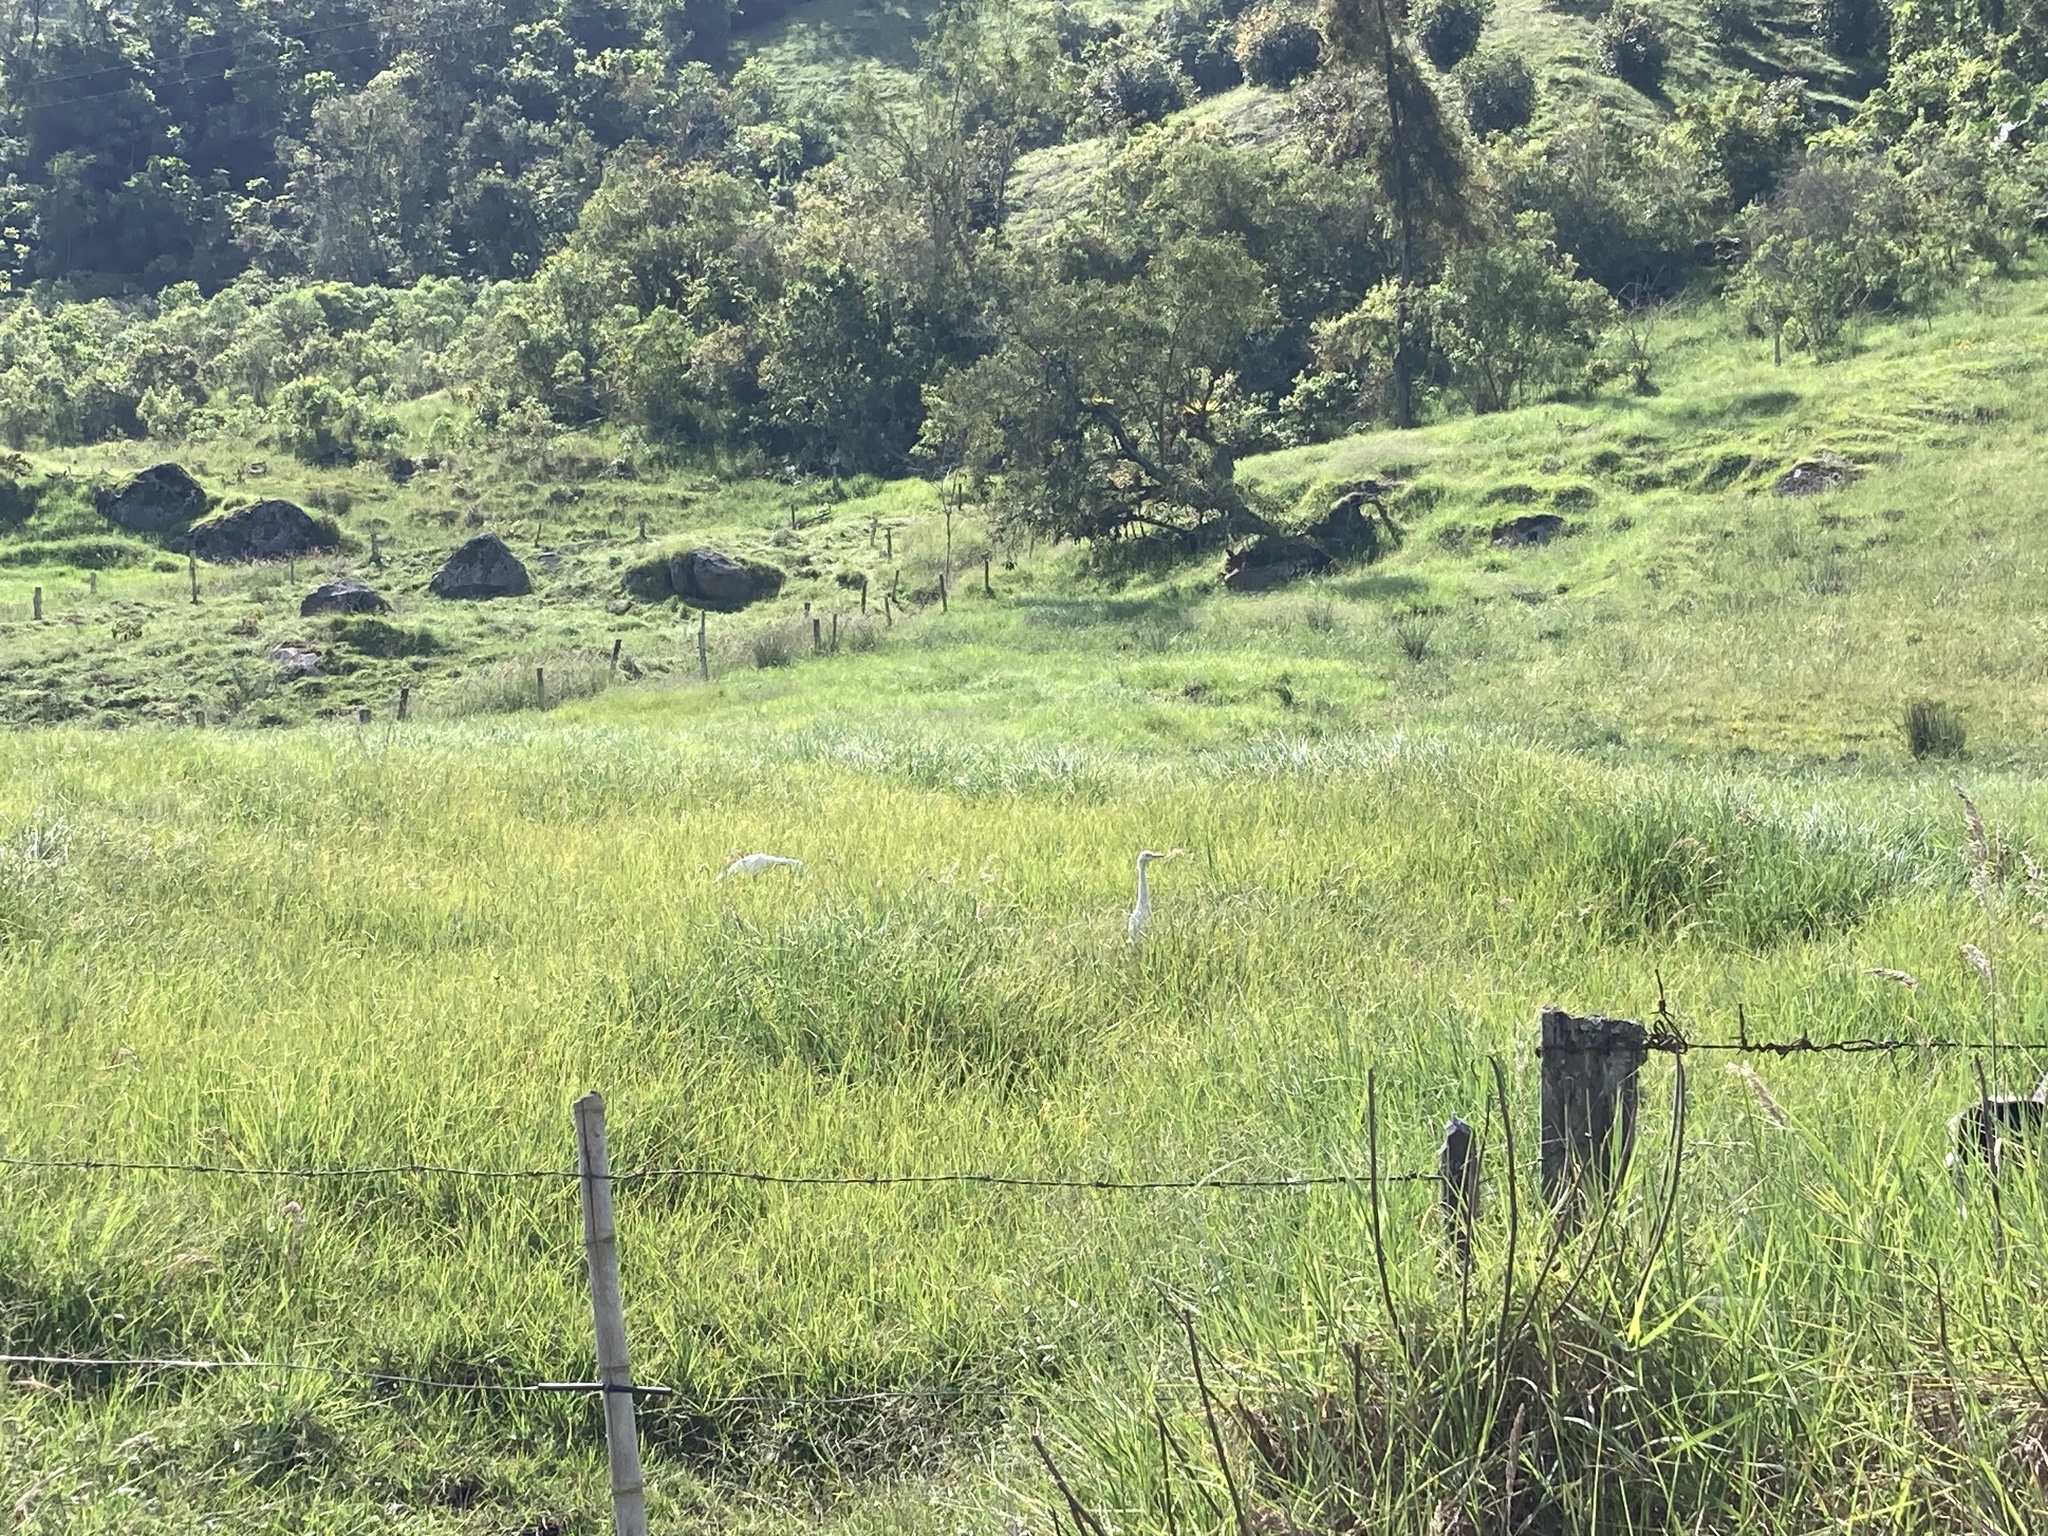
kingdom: Animalia
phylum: Chordata
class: Aves
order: Pelecaniformes
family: Ardeidae
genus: Bubulcus
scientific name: Bubulcus ibis
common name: Cattle egret
